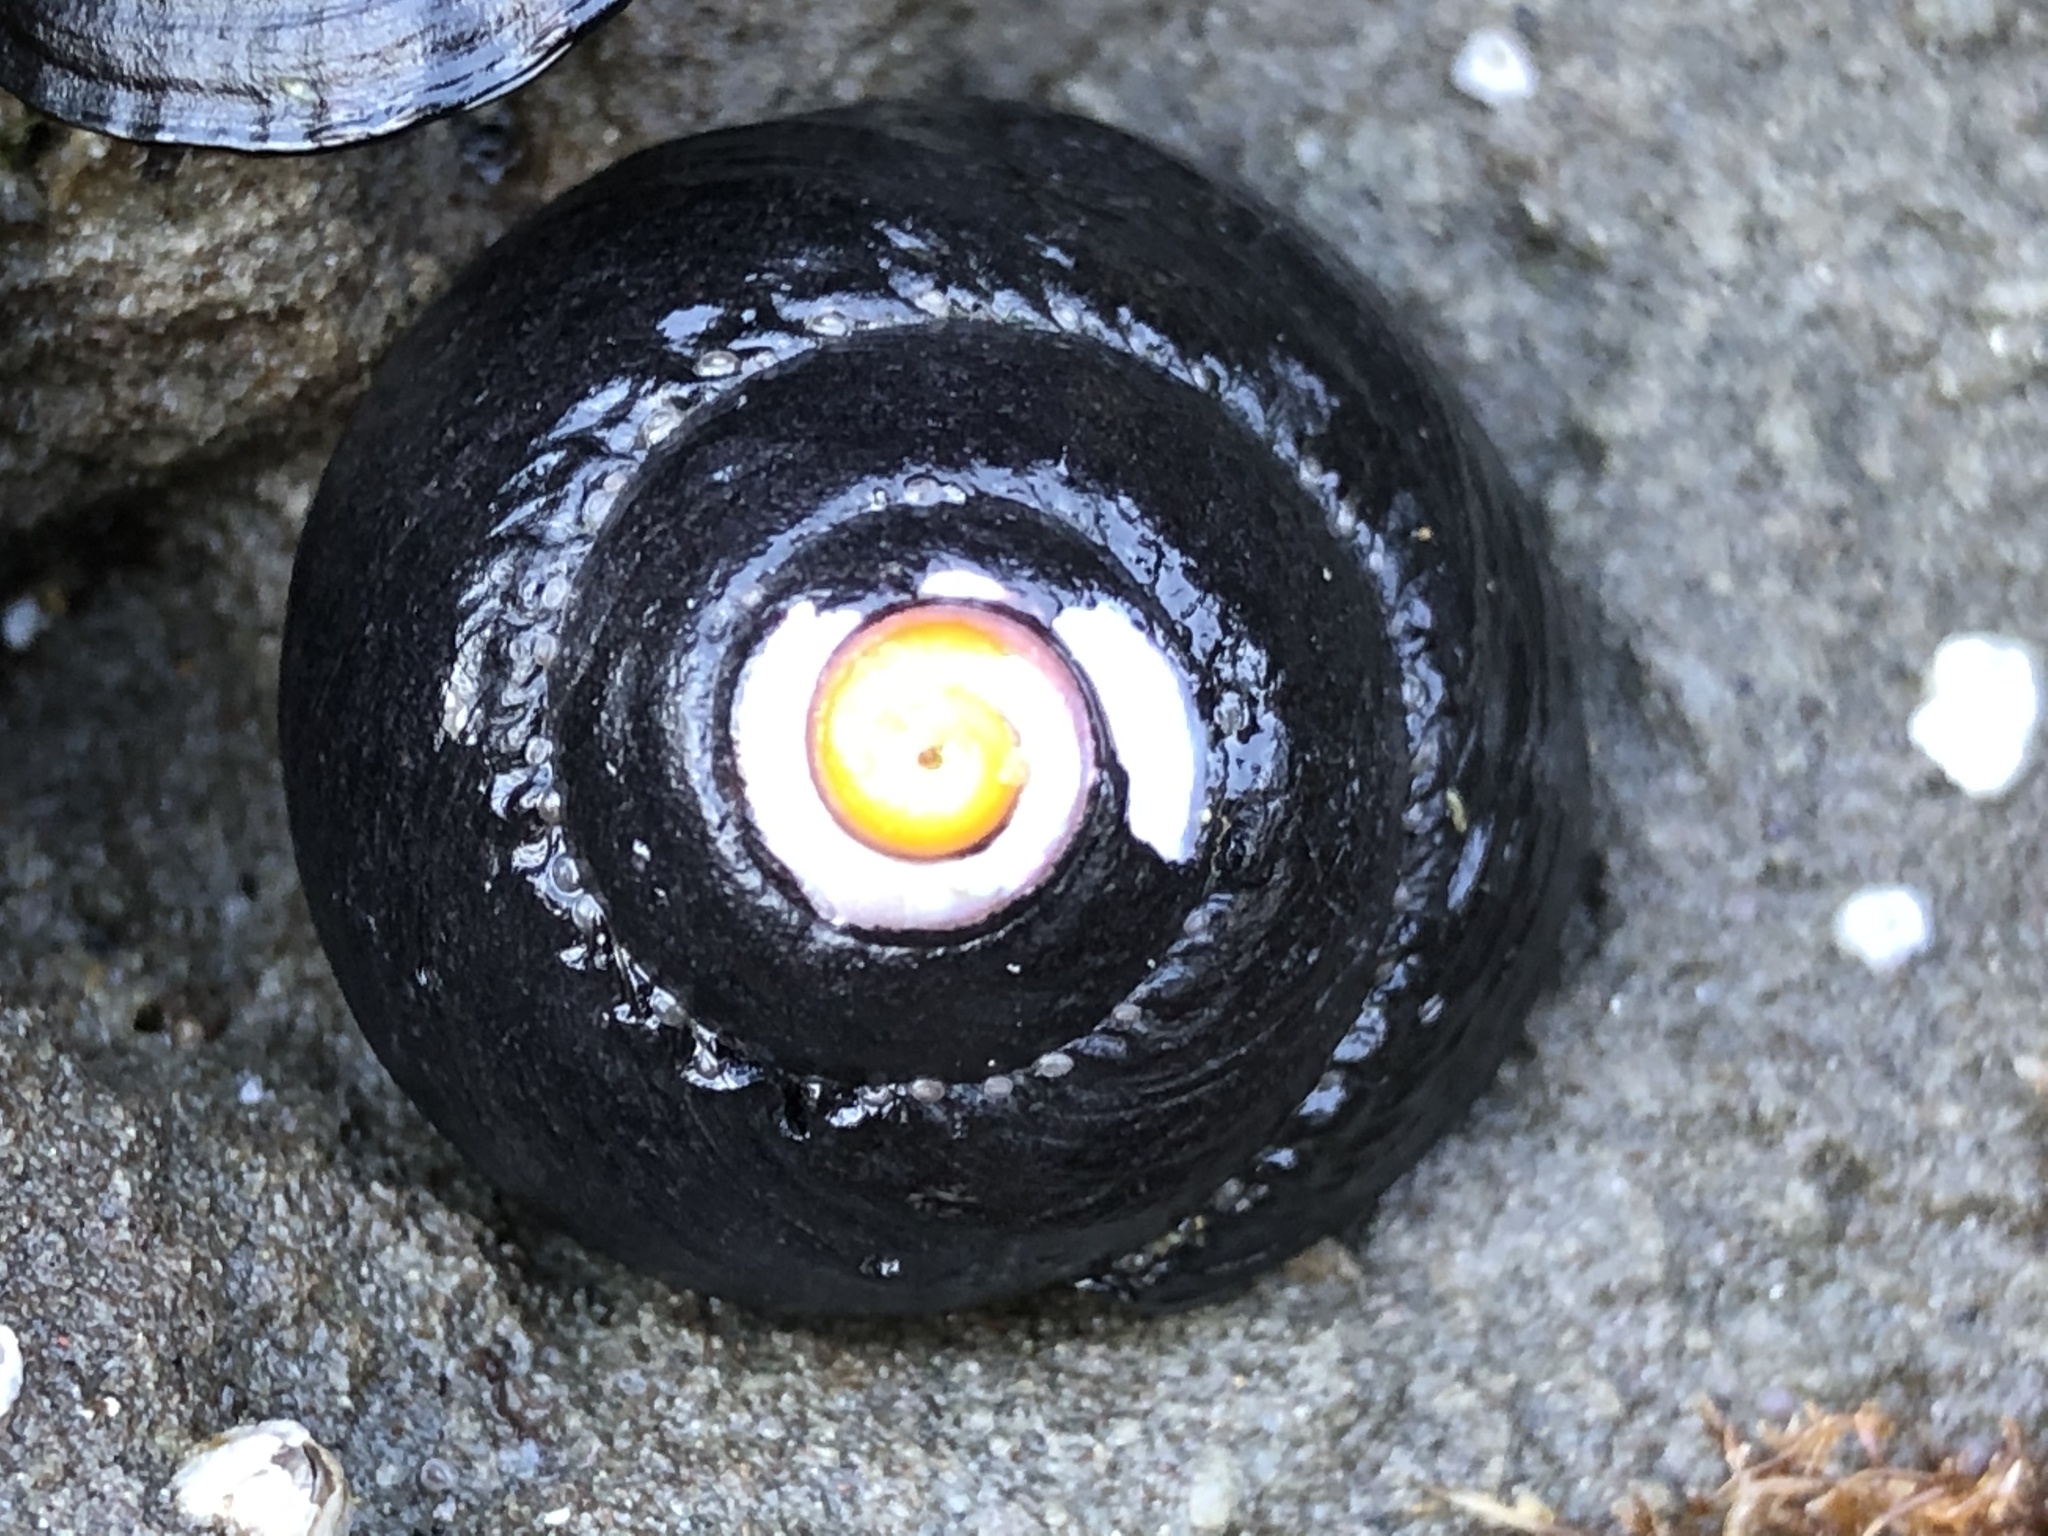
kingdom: Animalia
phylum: Mollusca
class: Gastropoda
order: Trochida
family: Tegulidae
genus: Tegula
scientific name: Tegula funebralis
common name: Black tegula
